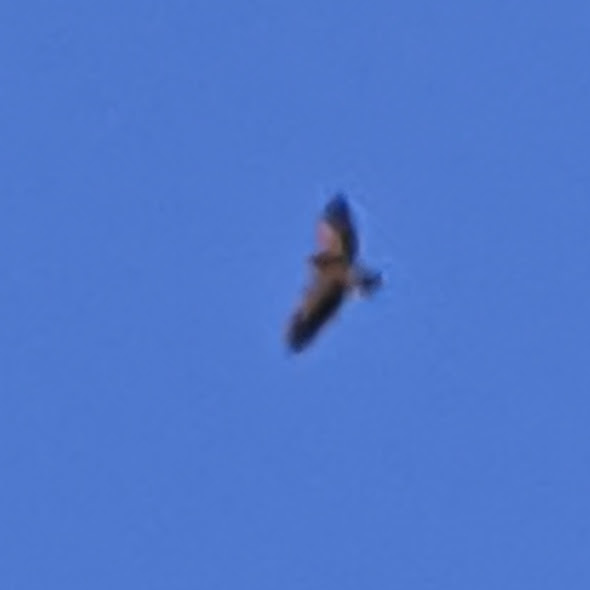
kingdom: Animalia
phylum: Chordata
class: Aves
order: Accipitriformes
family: Accipitridae
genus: Buteo
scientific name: Buteo swainsoni
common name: Swainson's hawk
